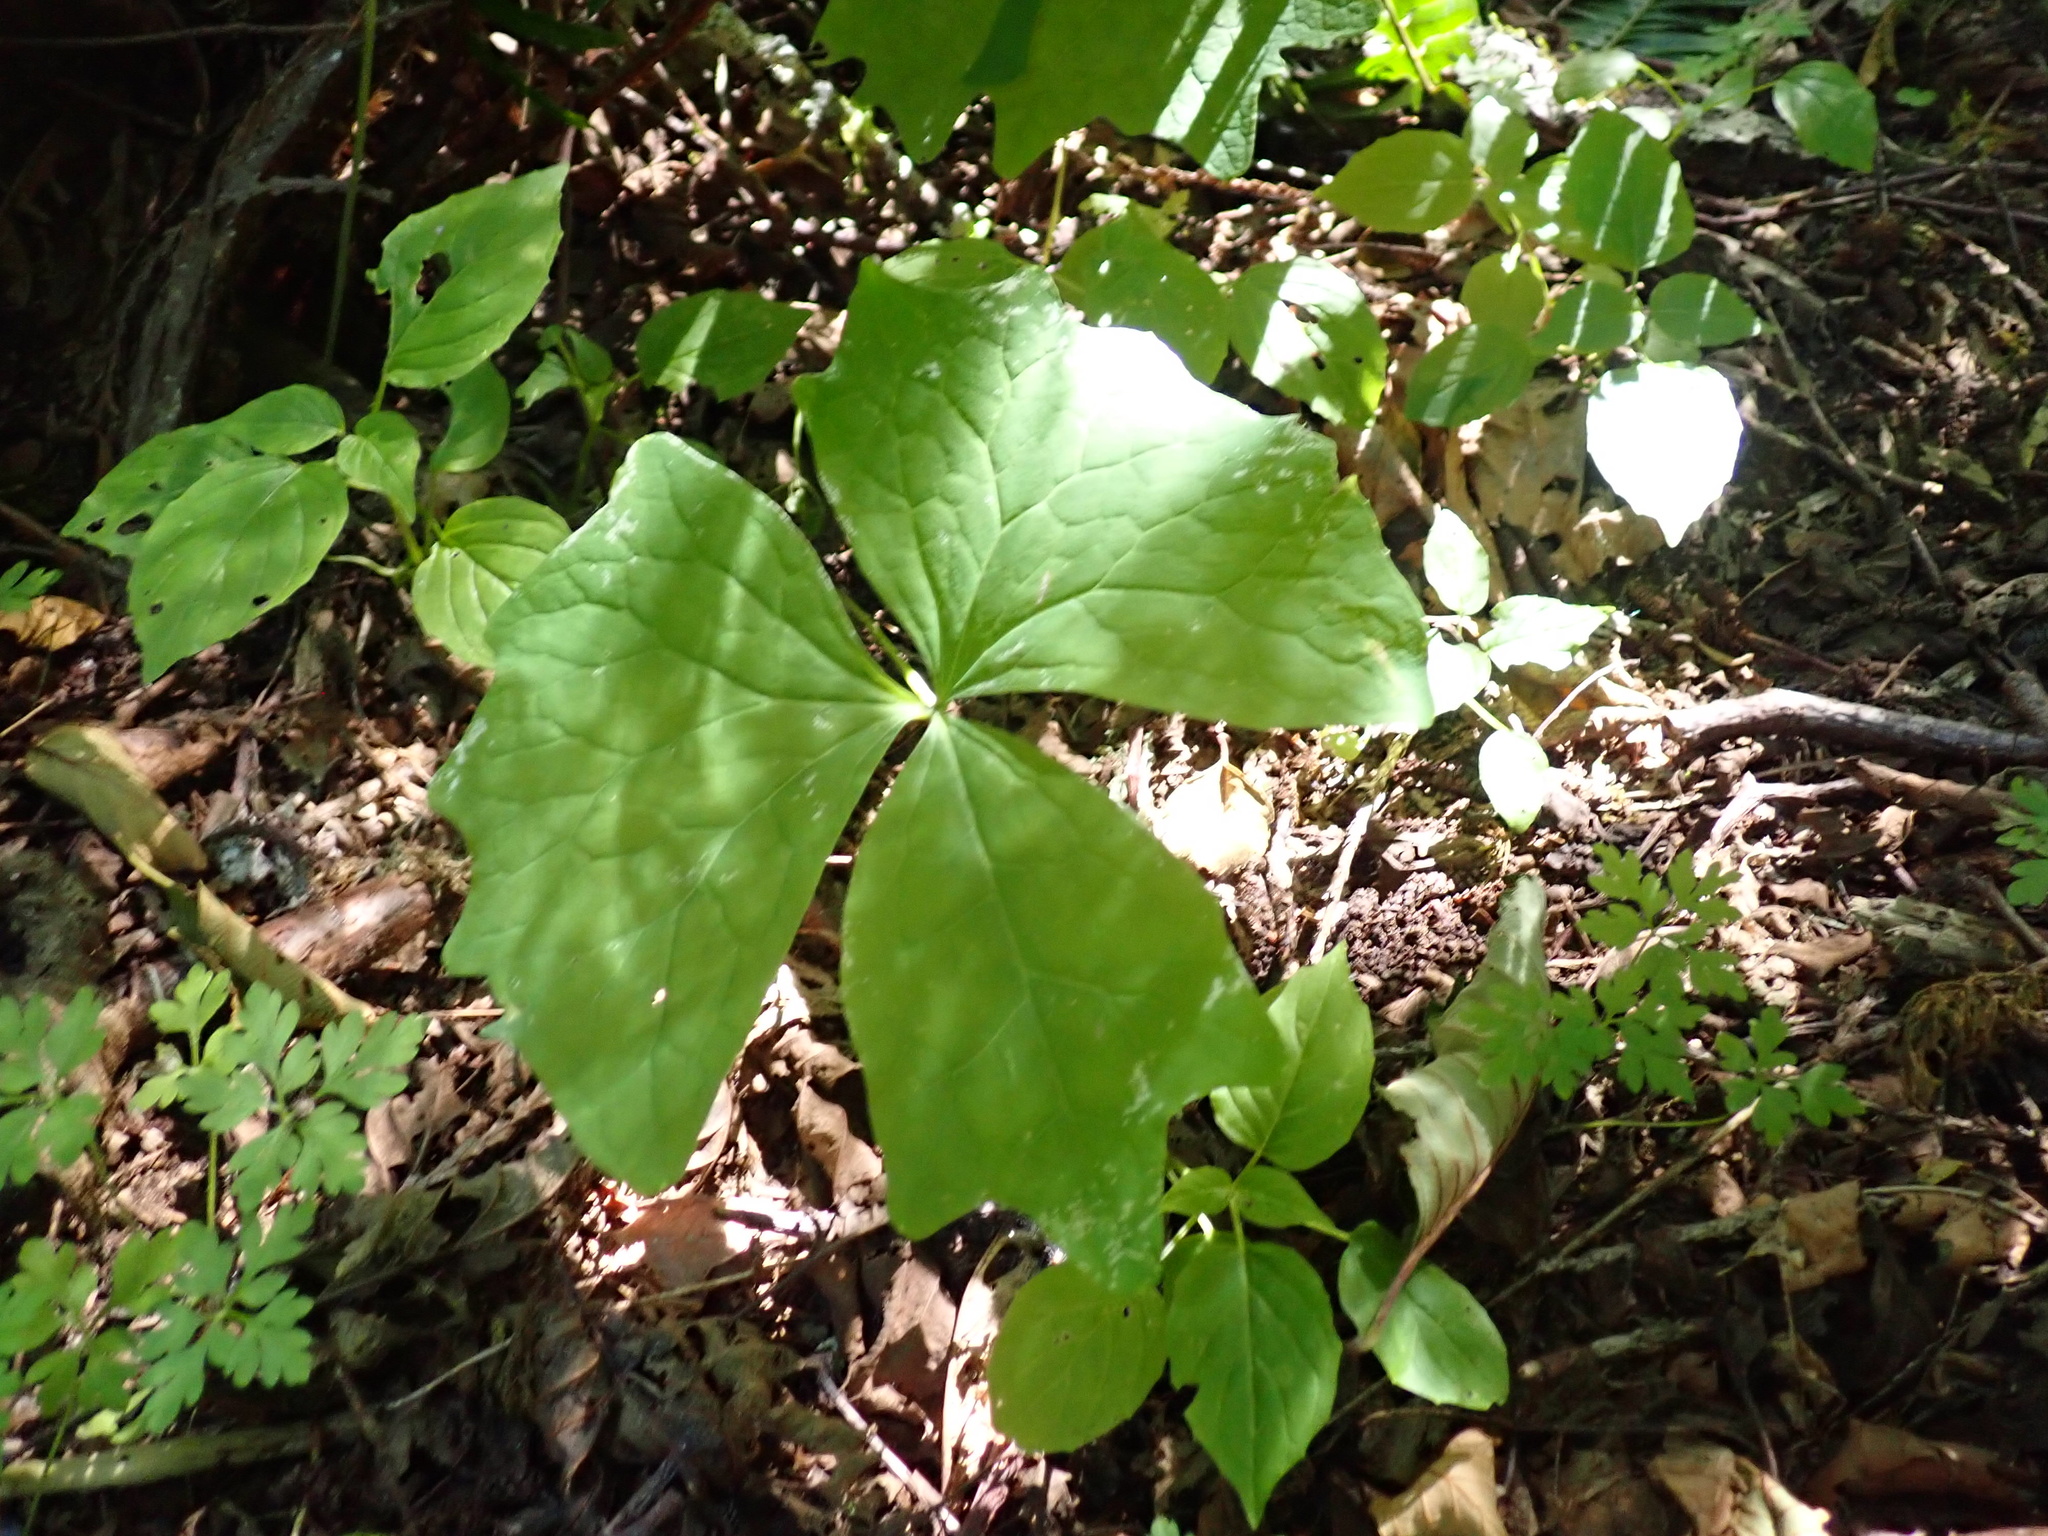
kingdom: Plantae
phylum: Tracheophyta
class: Magnoliopsida
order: Ranunculales
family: Berberidaceae
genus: Achlys
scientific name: Achlys triphylla
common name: Vanilla-leaf
